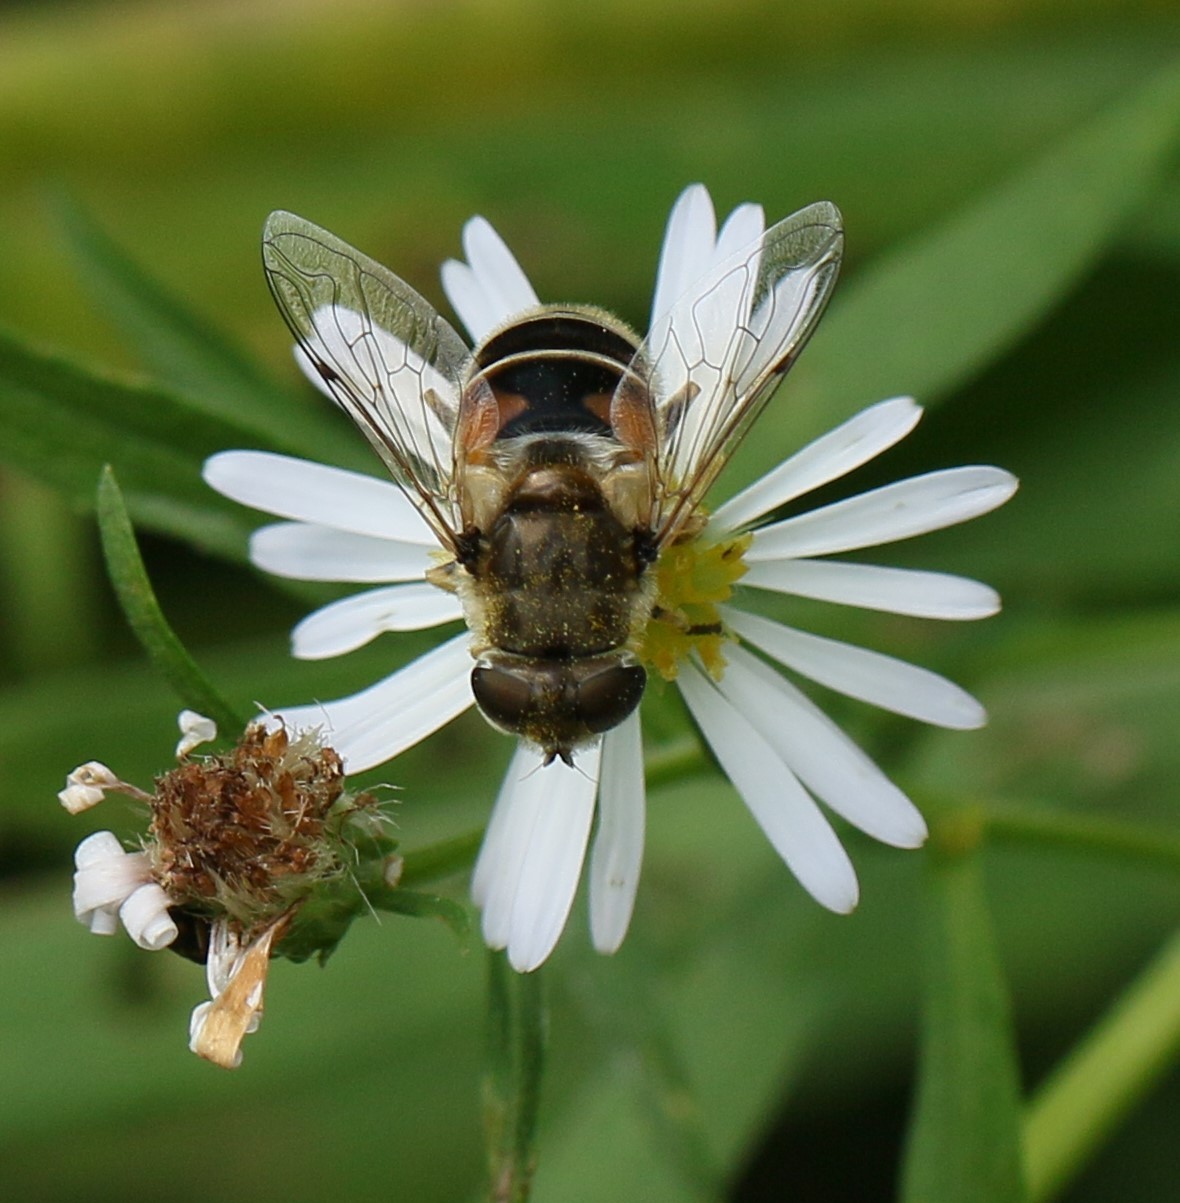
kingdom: Animalia
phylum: Arthropoda
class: Insecta
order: Diptera
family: Syrphidae
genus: Eristalis
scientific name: Eristalis arbustorum
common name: Hover fly
